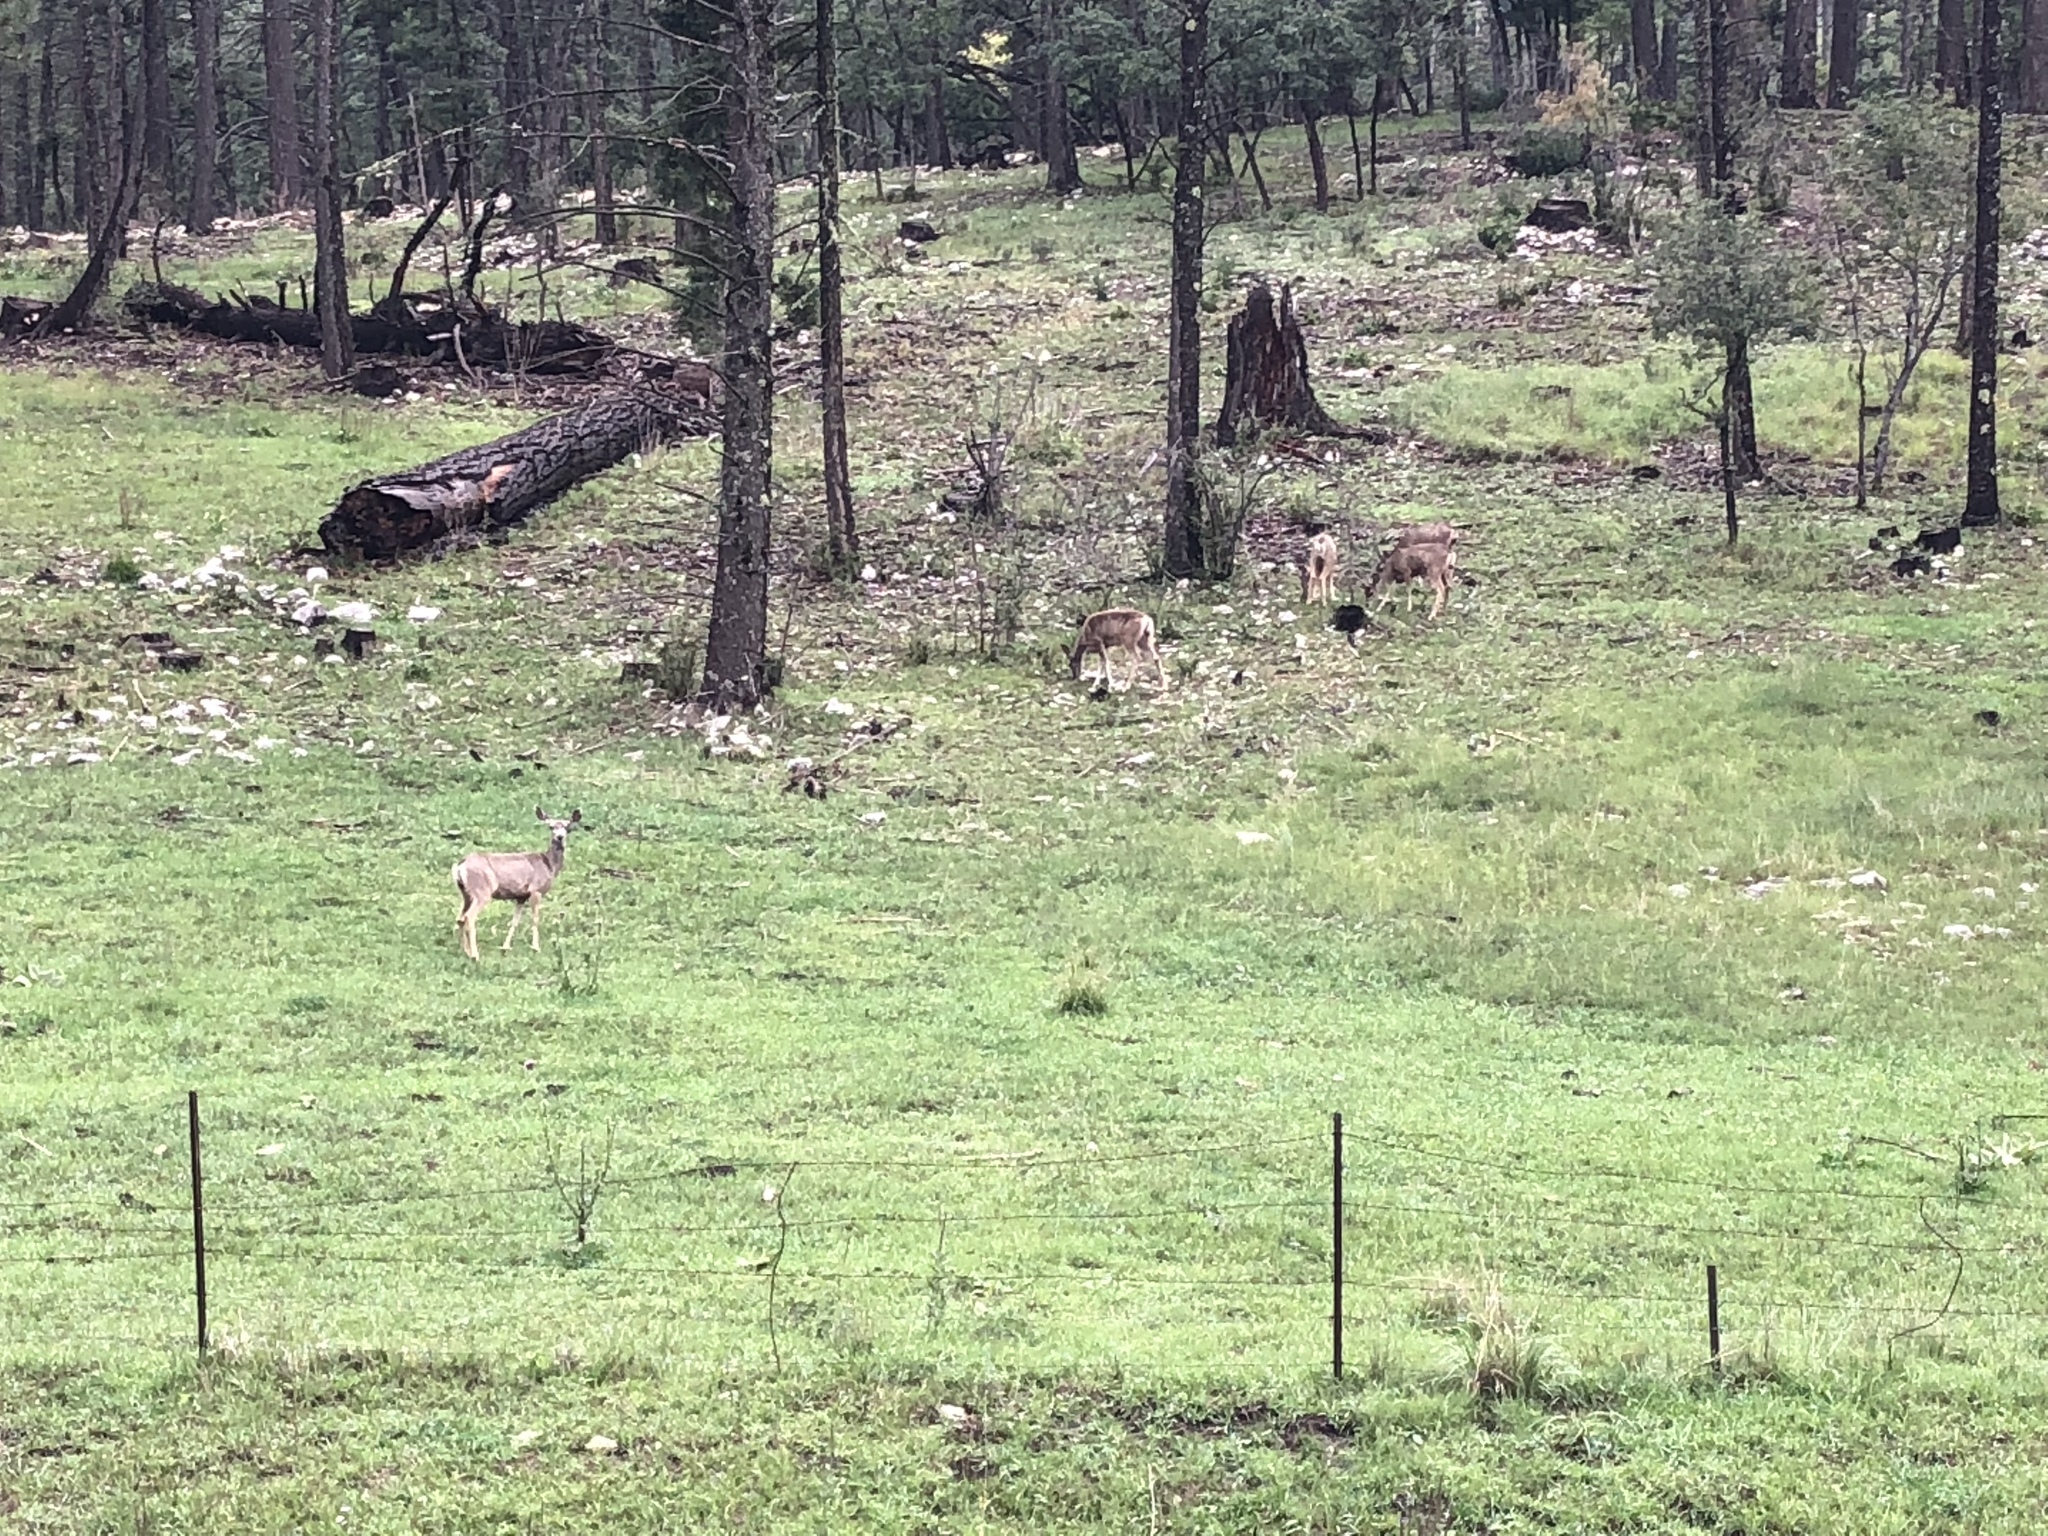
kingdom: Animalia
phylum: Chordata
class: Mammalia
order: Artiodactyla
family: Cervidae
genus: Odocoileus
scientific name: Odocoileus hemionus
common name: Mule deer
